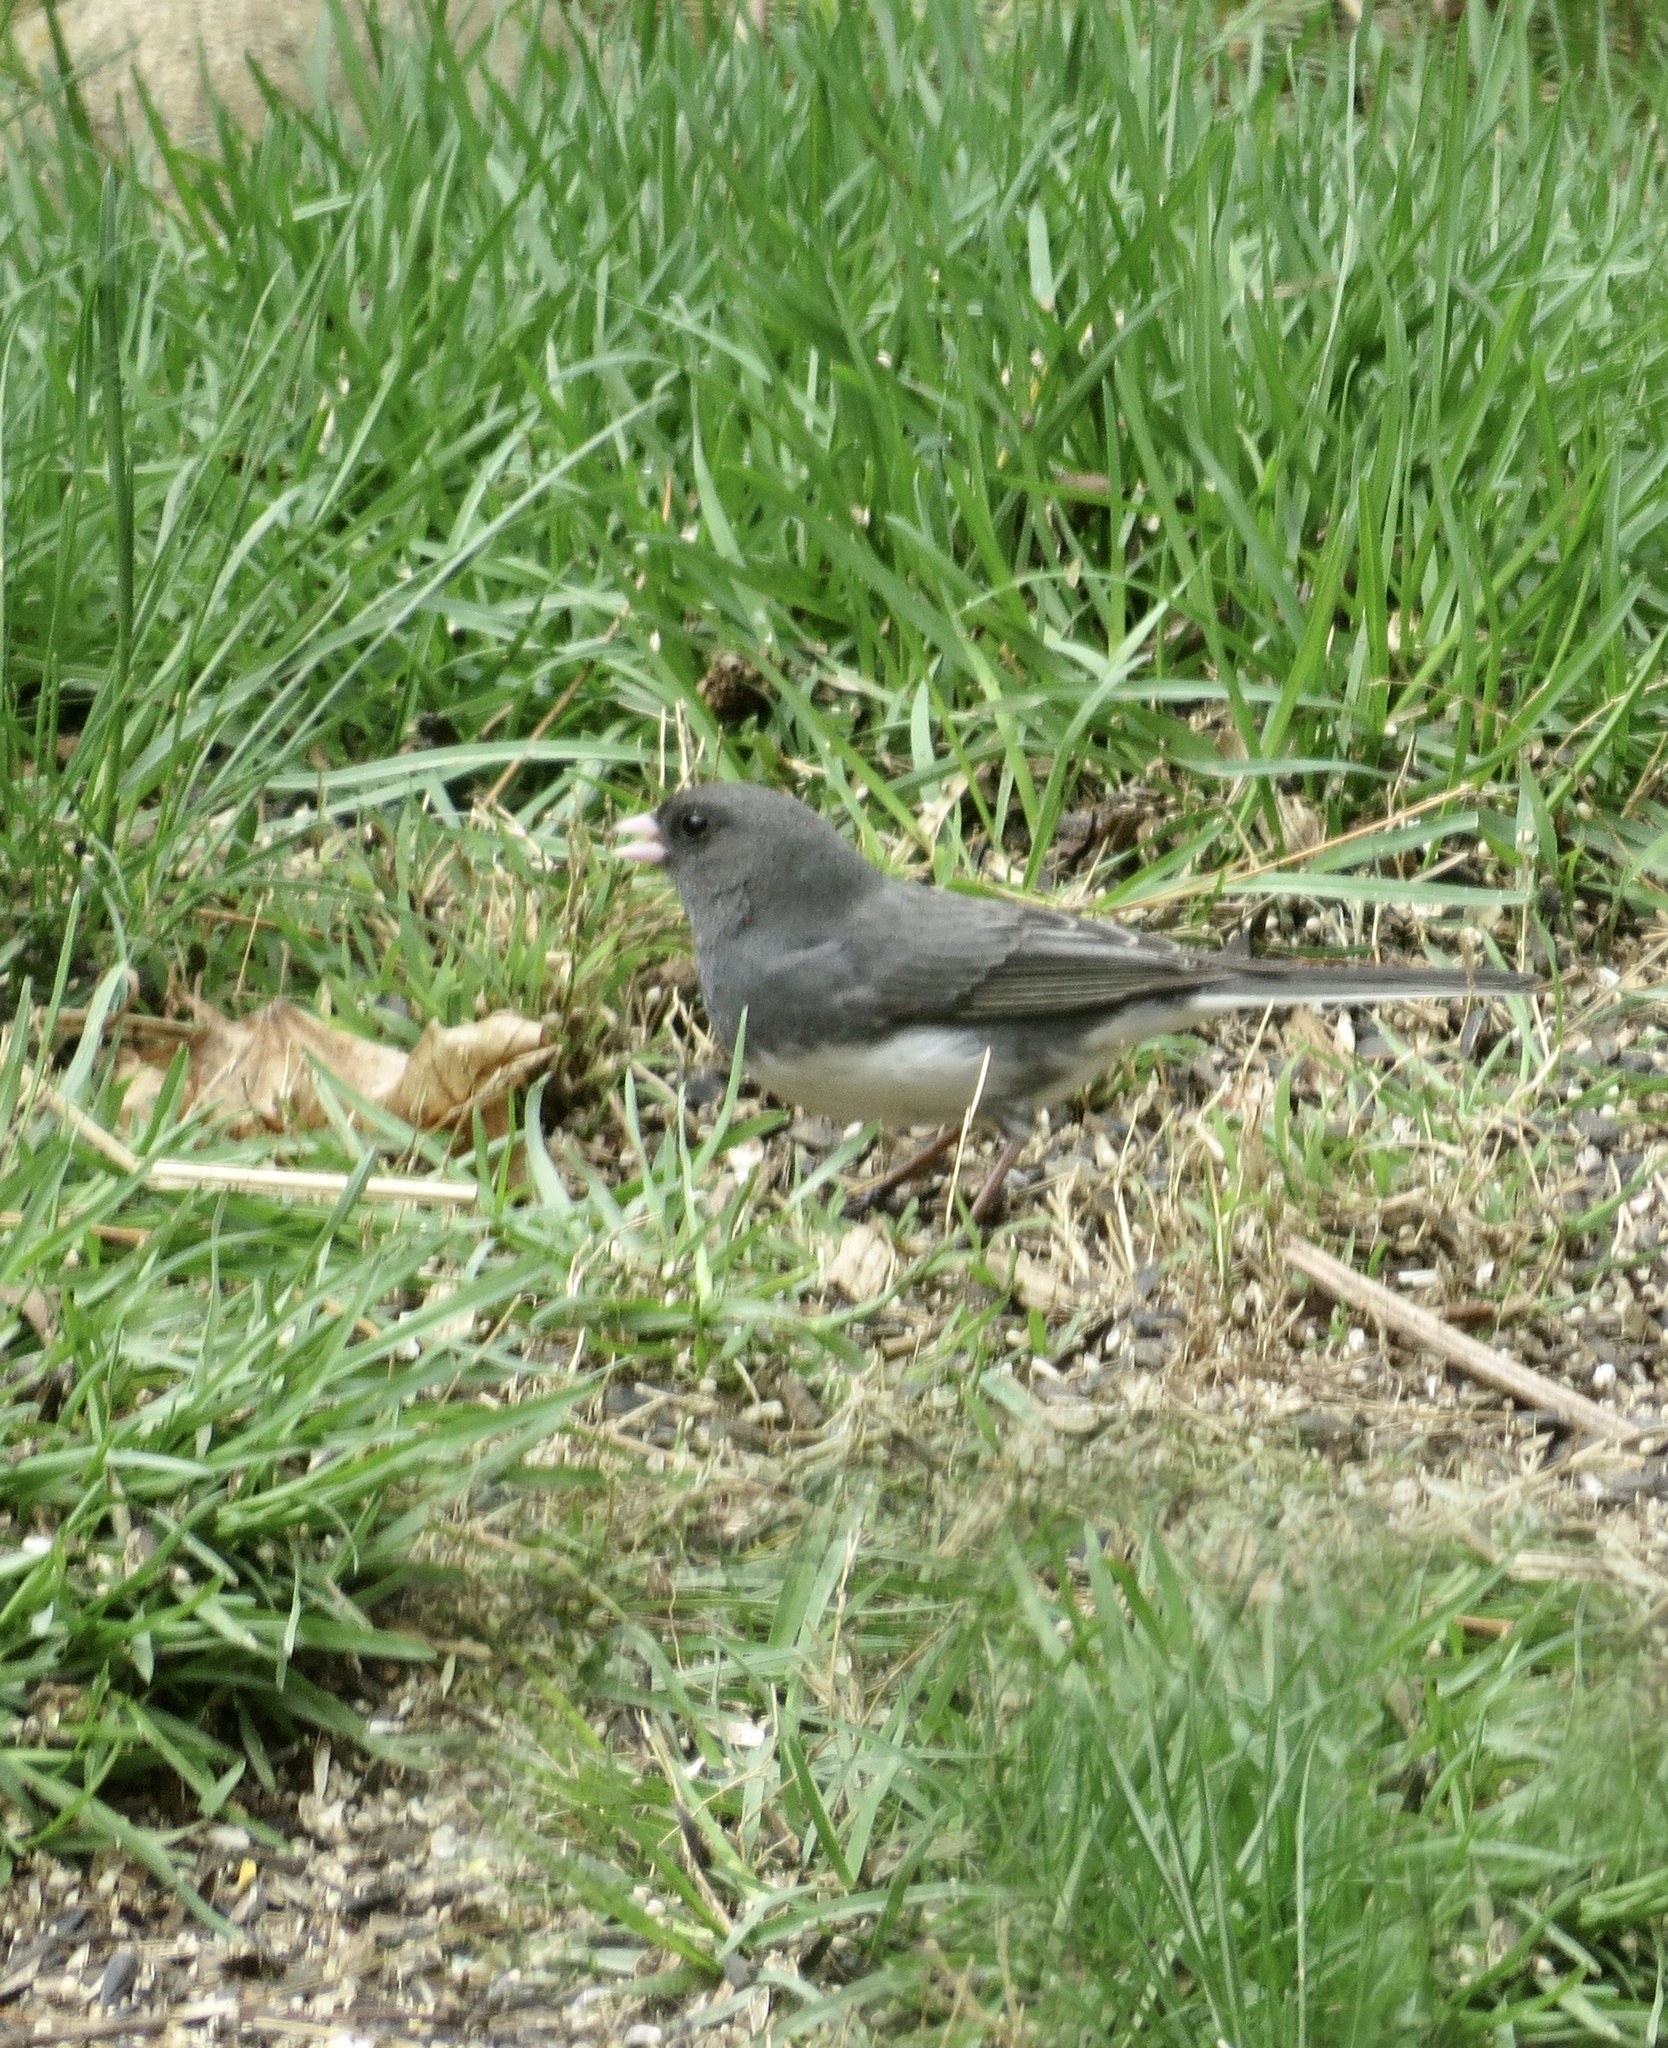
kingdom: Animalia
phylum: Chordata
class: Aves
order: Passeriformes
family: Passerellidae
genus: Junco
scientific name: Junco hyemalis
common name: Dark-eyed junco
